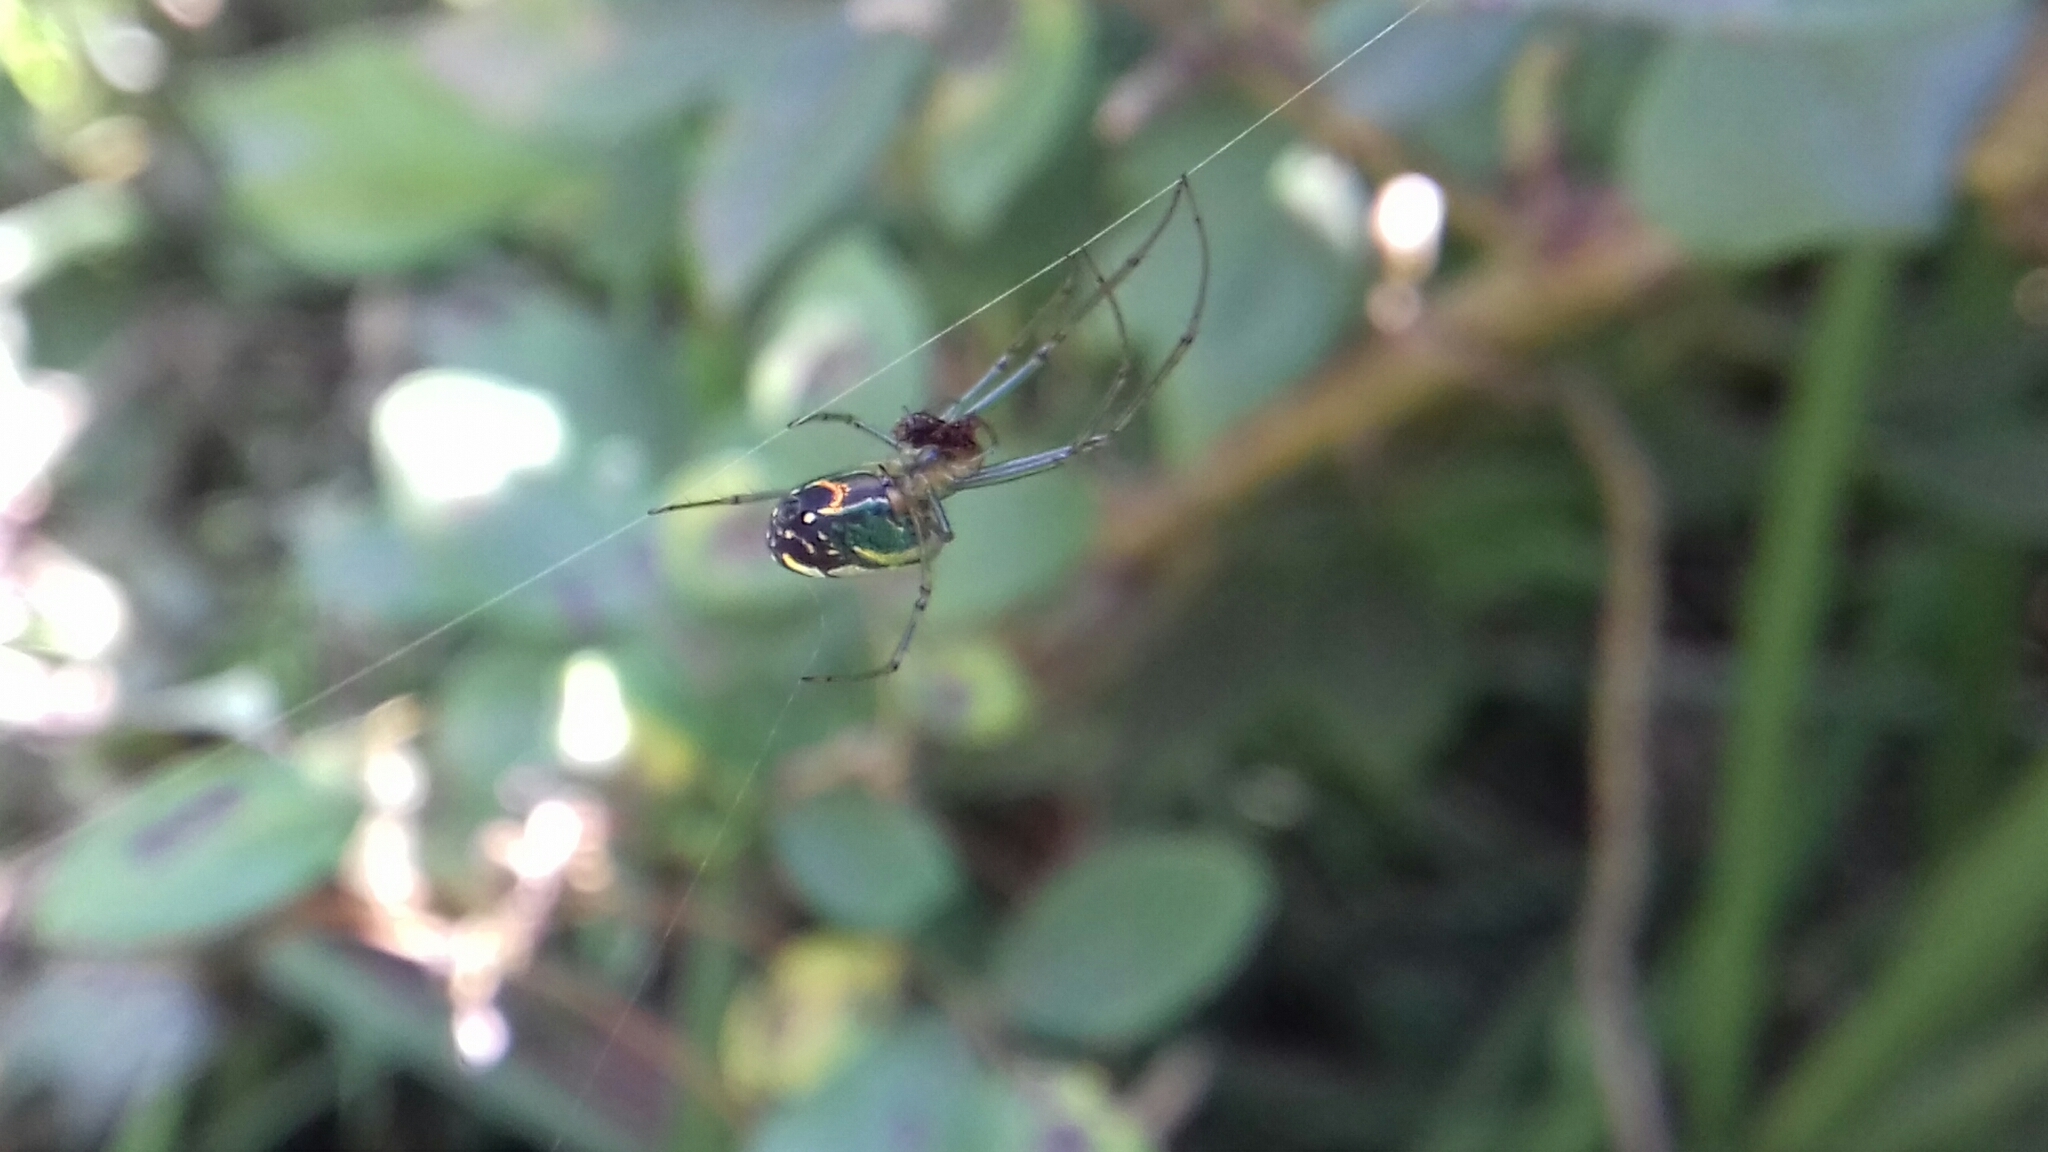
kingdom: Animalia
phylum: Arthropoda
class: Arachnida
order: Araneae
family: Tetragnathidae
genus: Leucauge
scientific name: Leucauge argyrobapta
